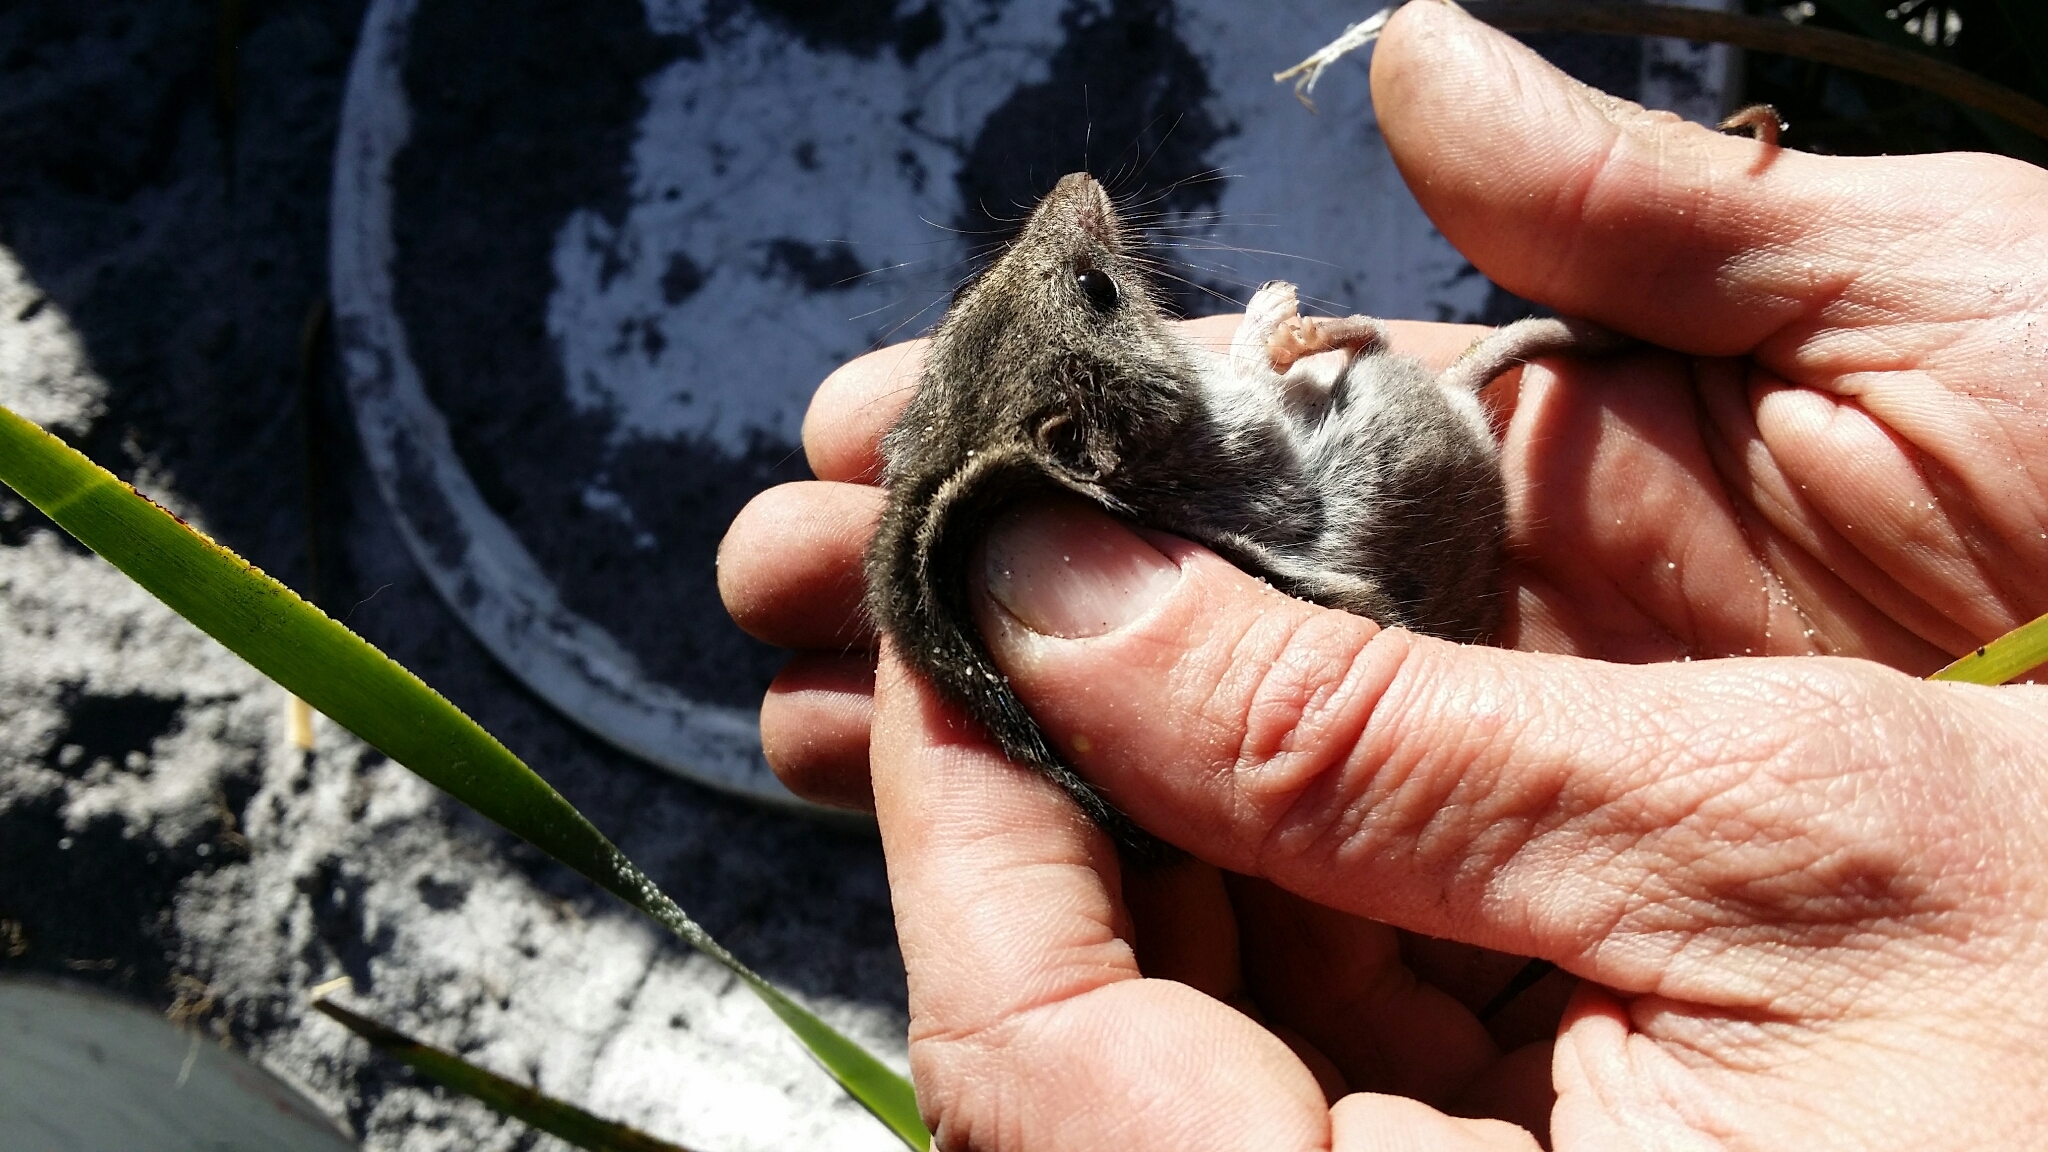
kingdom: Animalia
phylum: Chordata
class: Mammalia
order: Dasyuromorphia
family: Dasyuridae
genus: Antechinus
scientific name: Antechinus flavipes
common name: Yellow-footed antechinus
